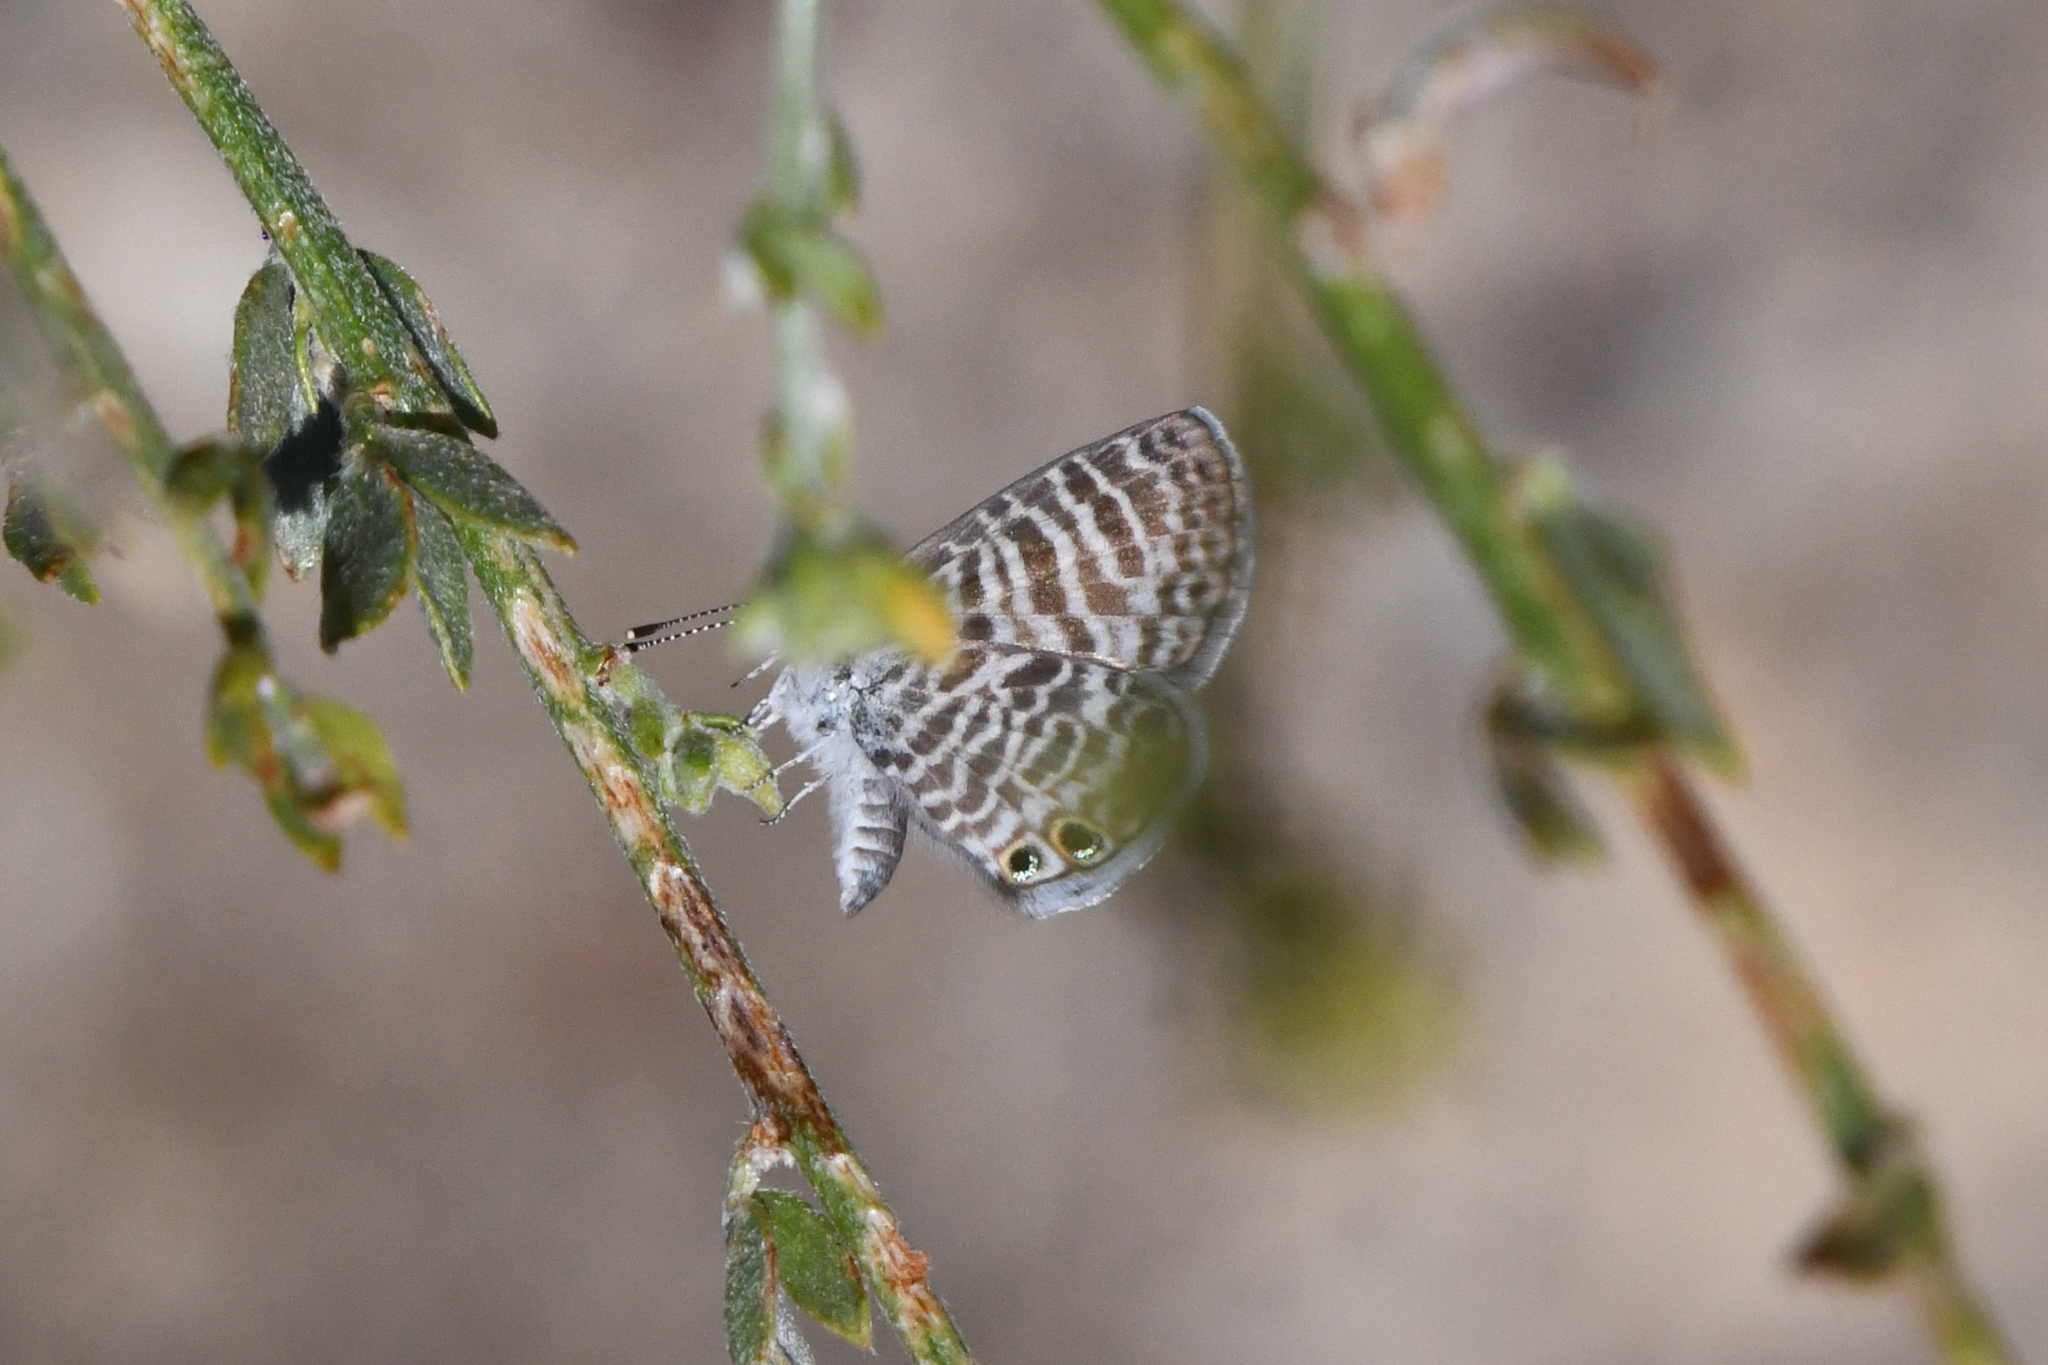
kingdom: Animalia
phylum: Arthropoda
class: Insecta
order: Lepidoptera
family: Lycaenidae
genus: Leptotes
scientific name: Leptotes marina
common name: Marine blue
